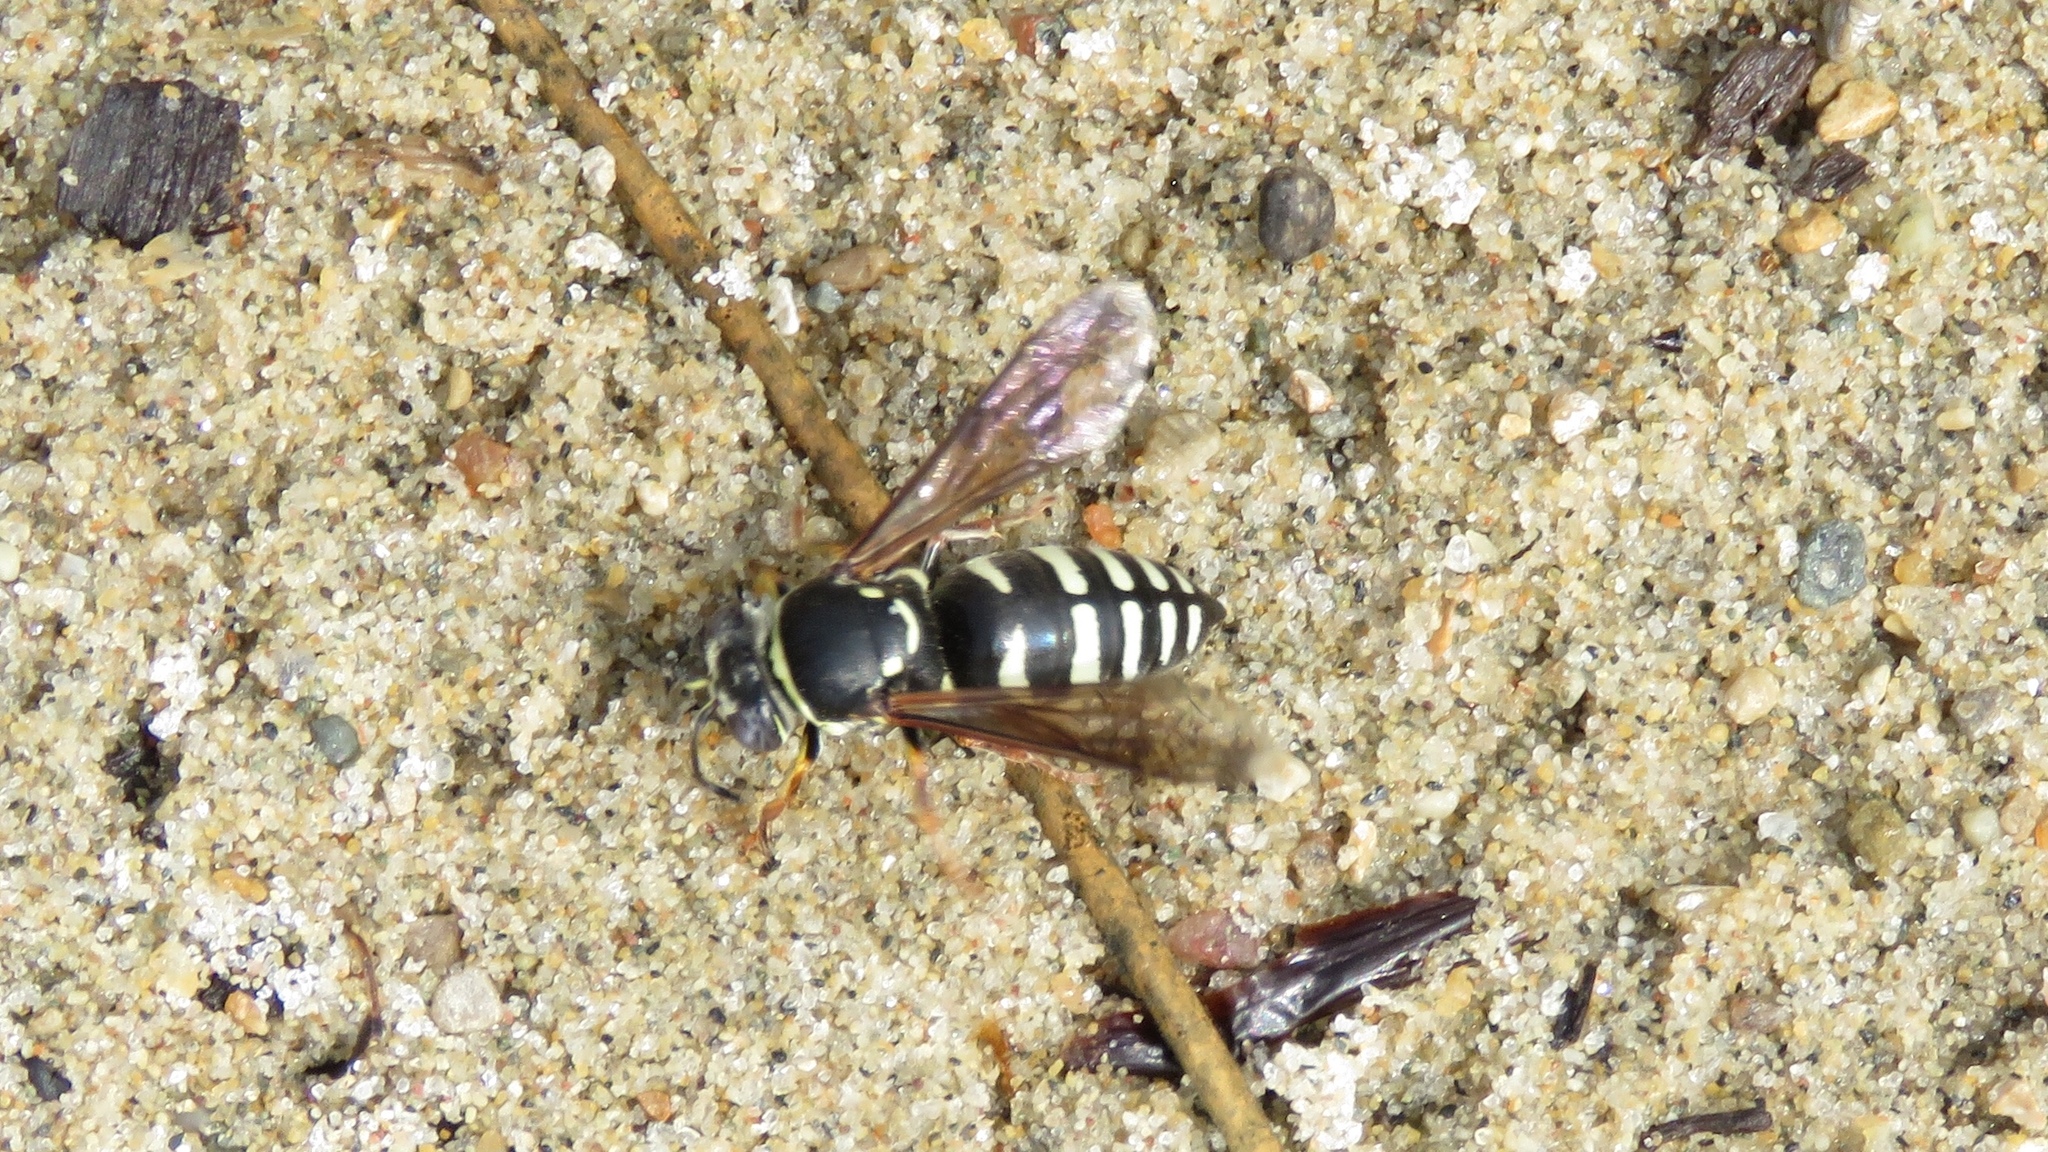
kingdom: Animalia
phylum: Arthropoda
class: Insecta
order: Hymenoptera
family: Crabronidae
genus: Bicyrtes
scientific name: Bicyrtes ventralis
